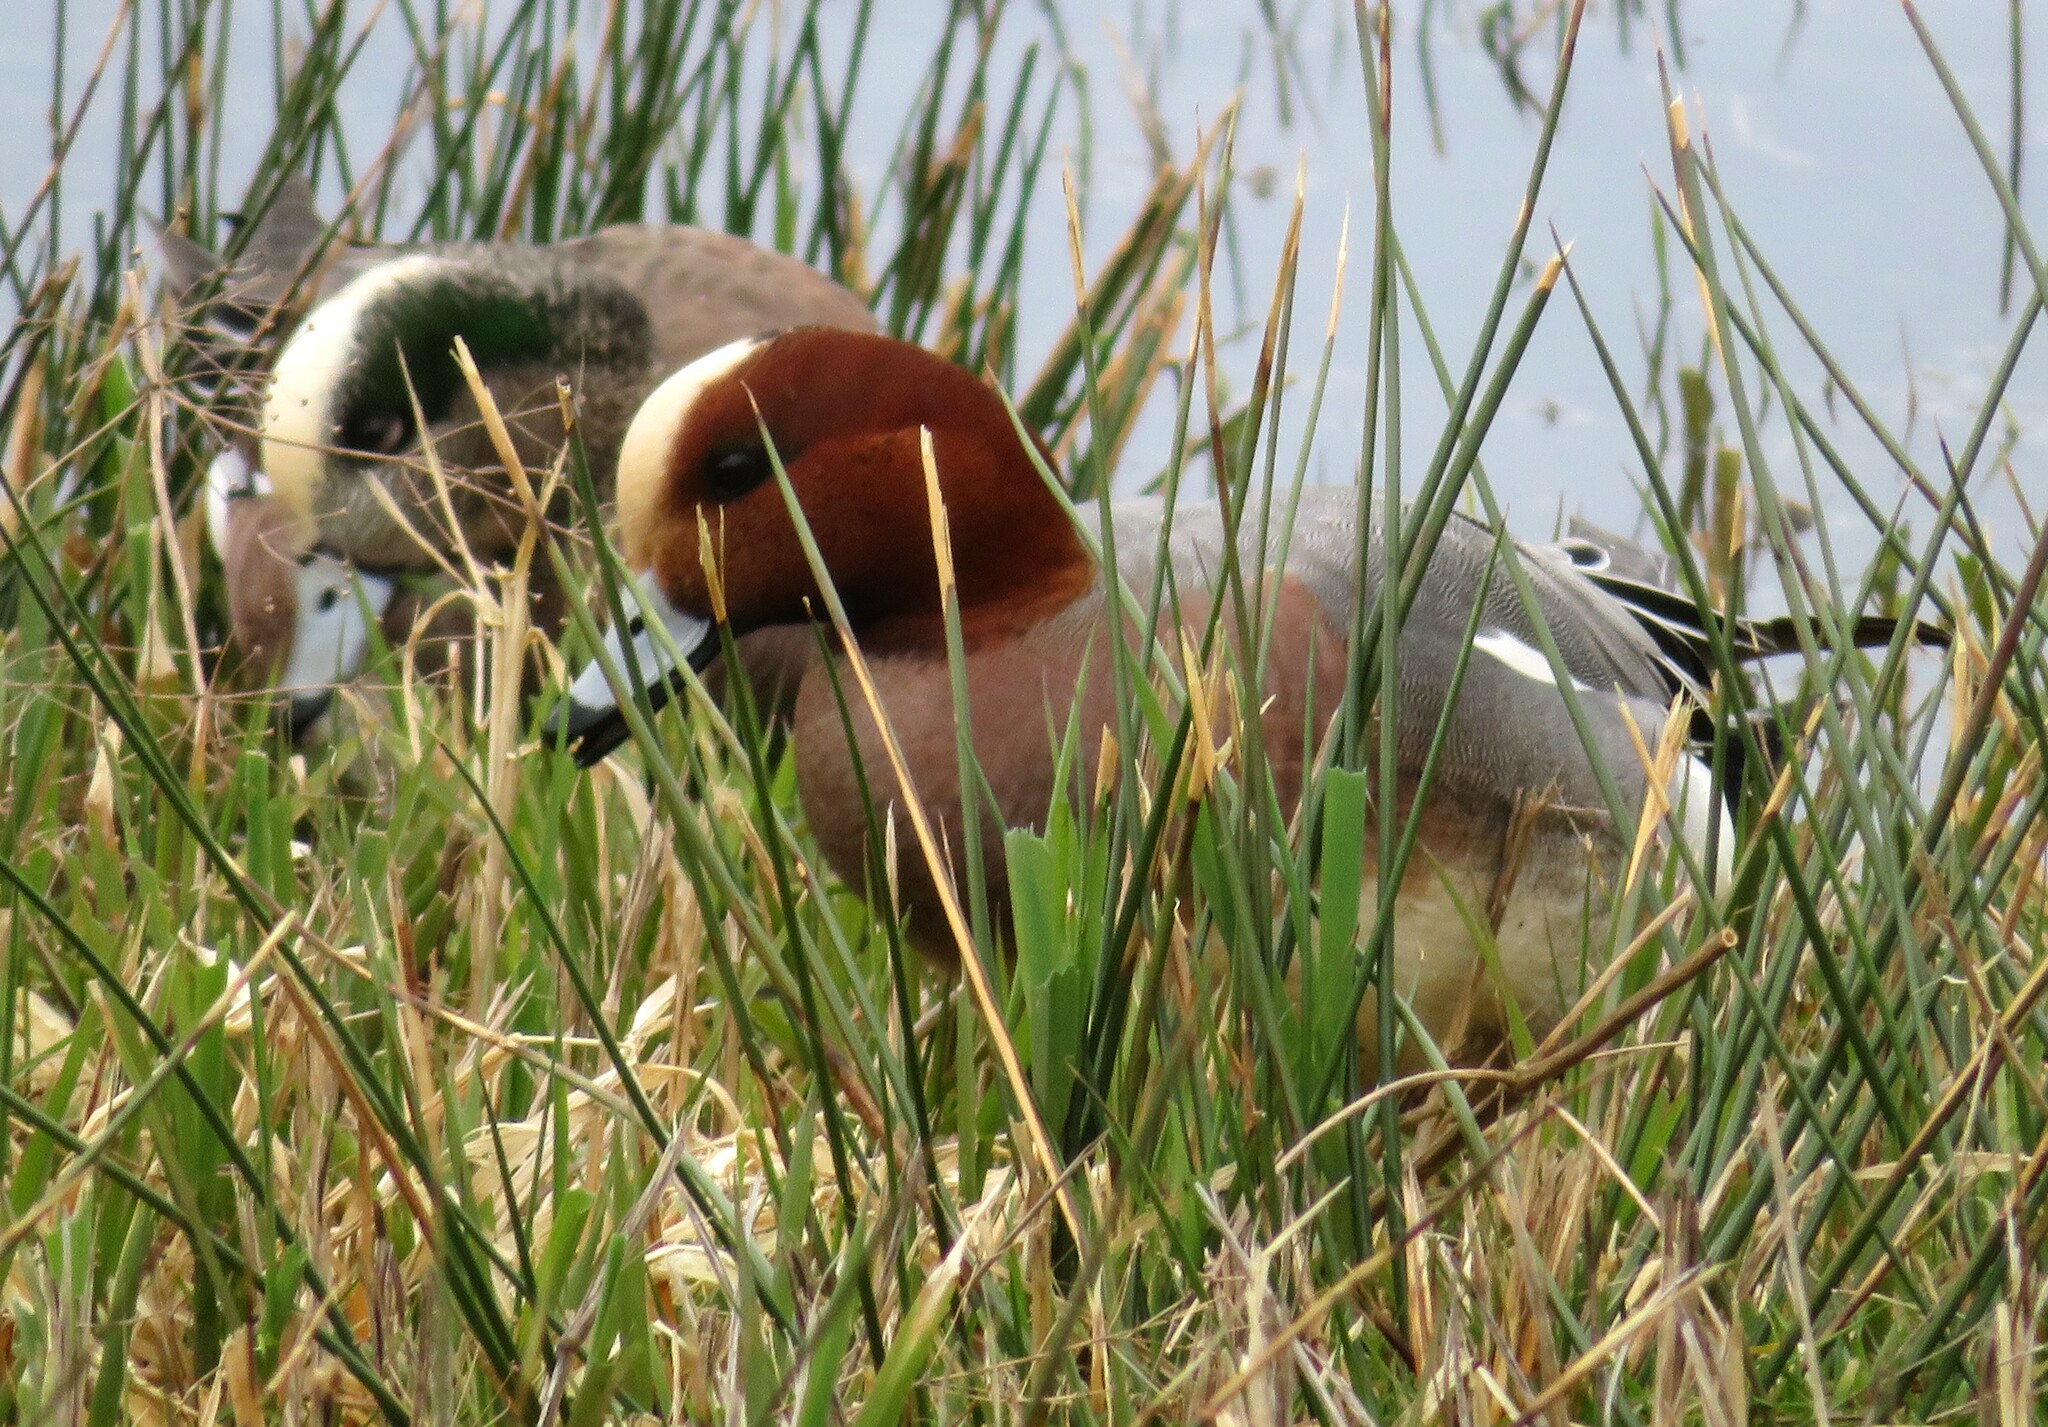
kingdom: Animalia
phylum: Chordata
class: Aves
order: Anseriformes
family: Anatidae
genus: Mareca
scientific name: Mareca penelope
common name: Eurasian wigeon
